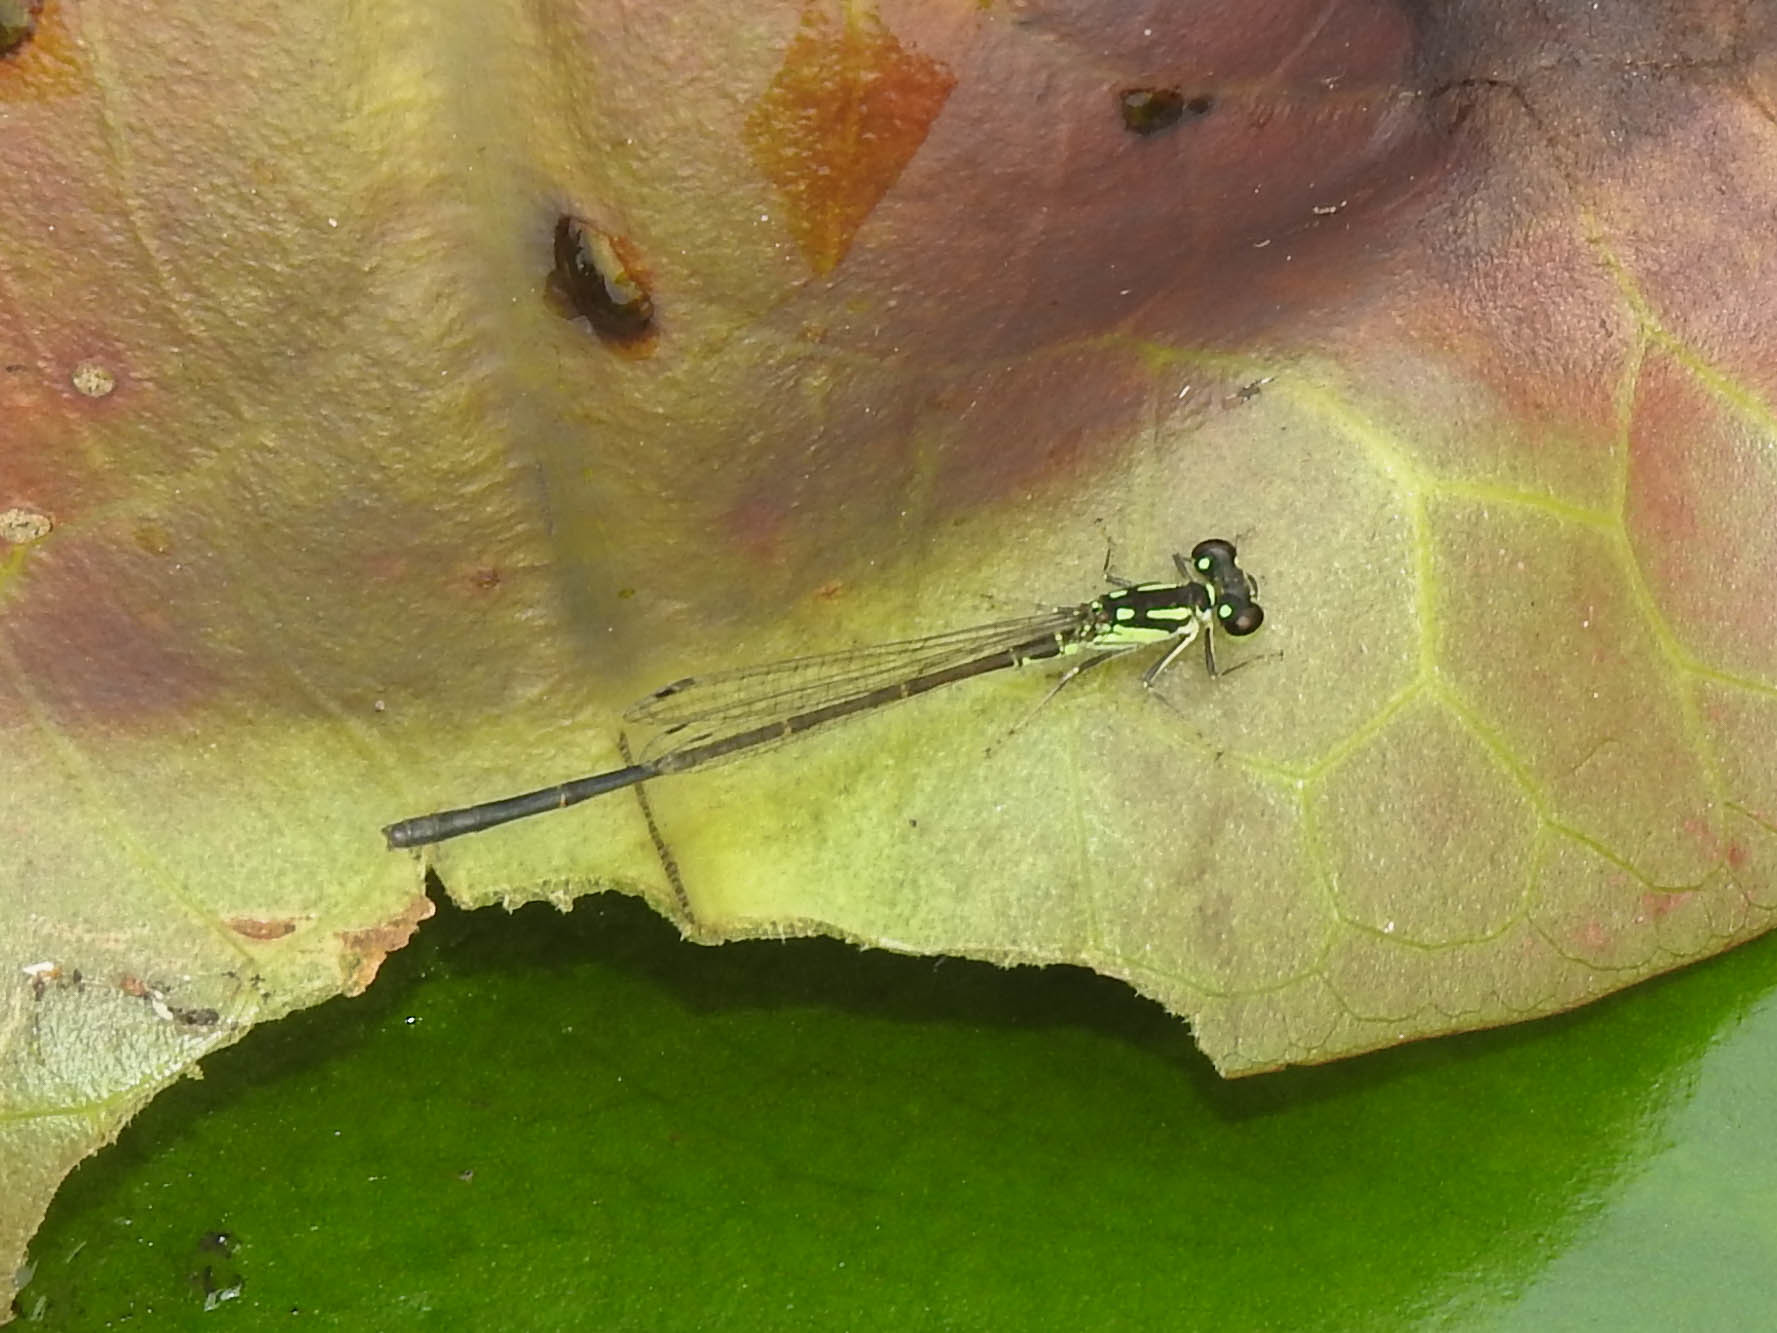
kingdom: Animalia
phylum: Arthropoda
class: Insecta
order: Odonata
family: Coenagrionidae
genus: Ischnura
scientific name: Ischnura posita
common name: Fragile forktail
